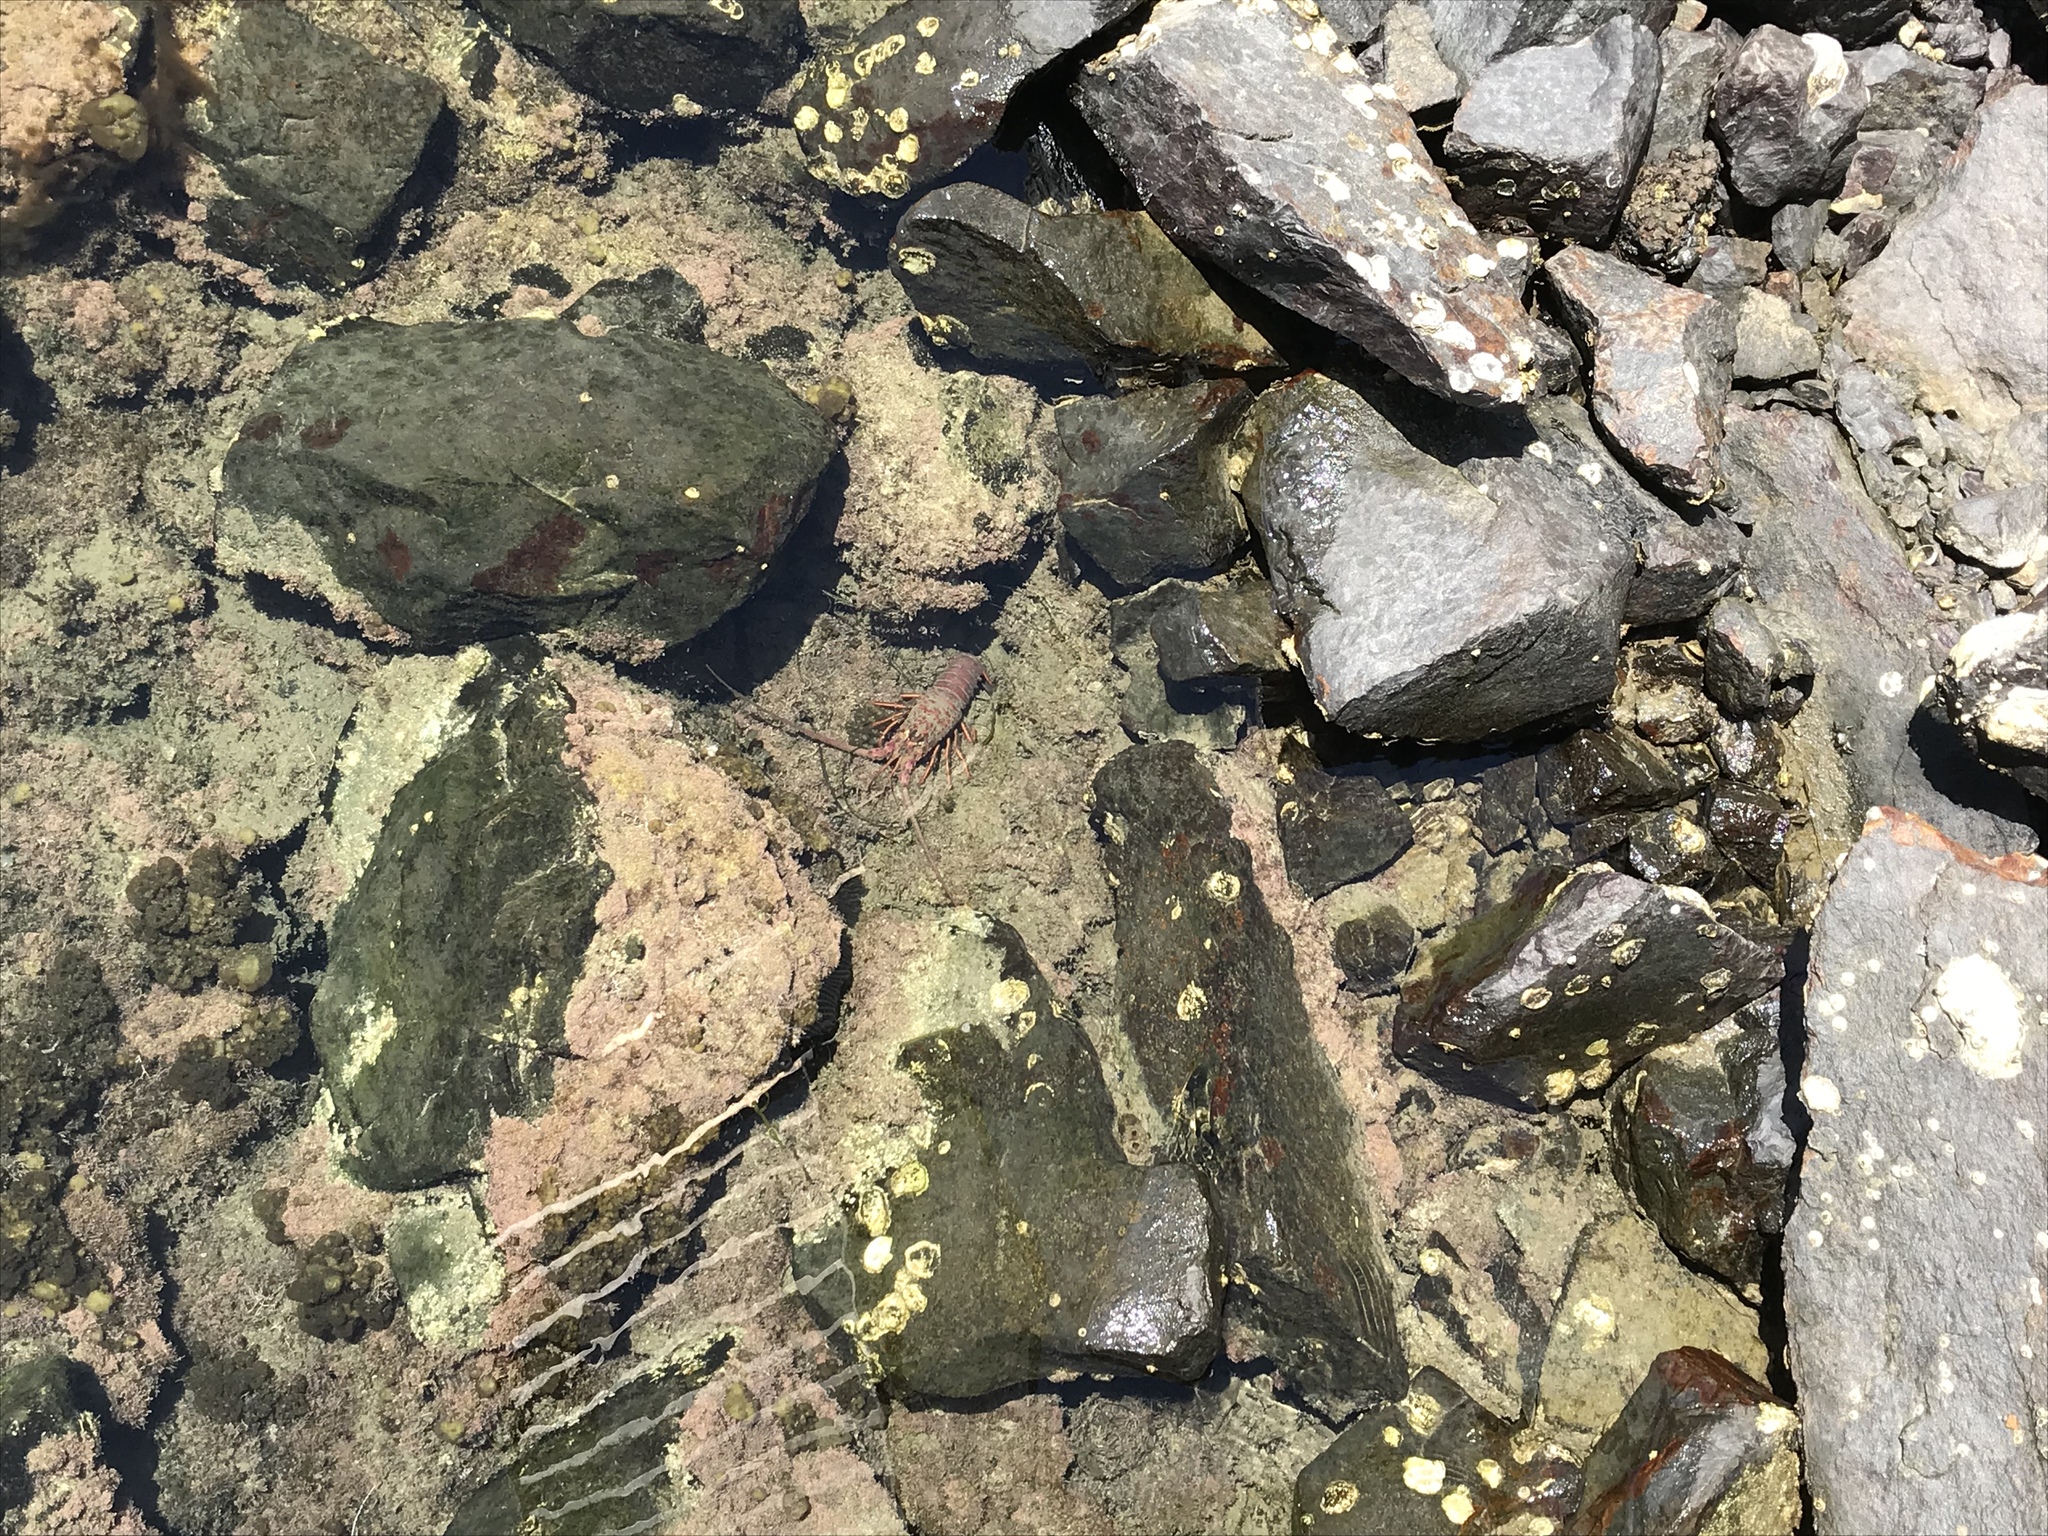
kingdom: Animalia
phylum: Arthropoda
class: Malacostraca
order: Decapoda
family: Palinuridae
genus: Panulirus
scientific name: Panulirus interruptus
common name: California spiny lobster
